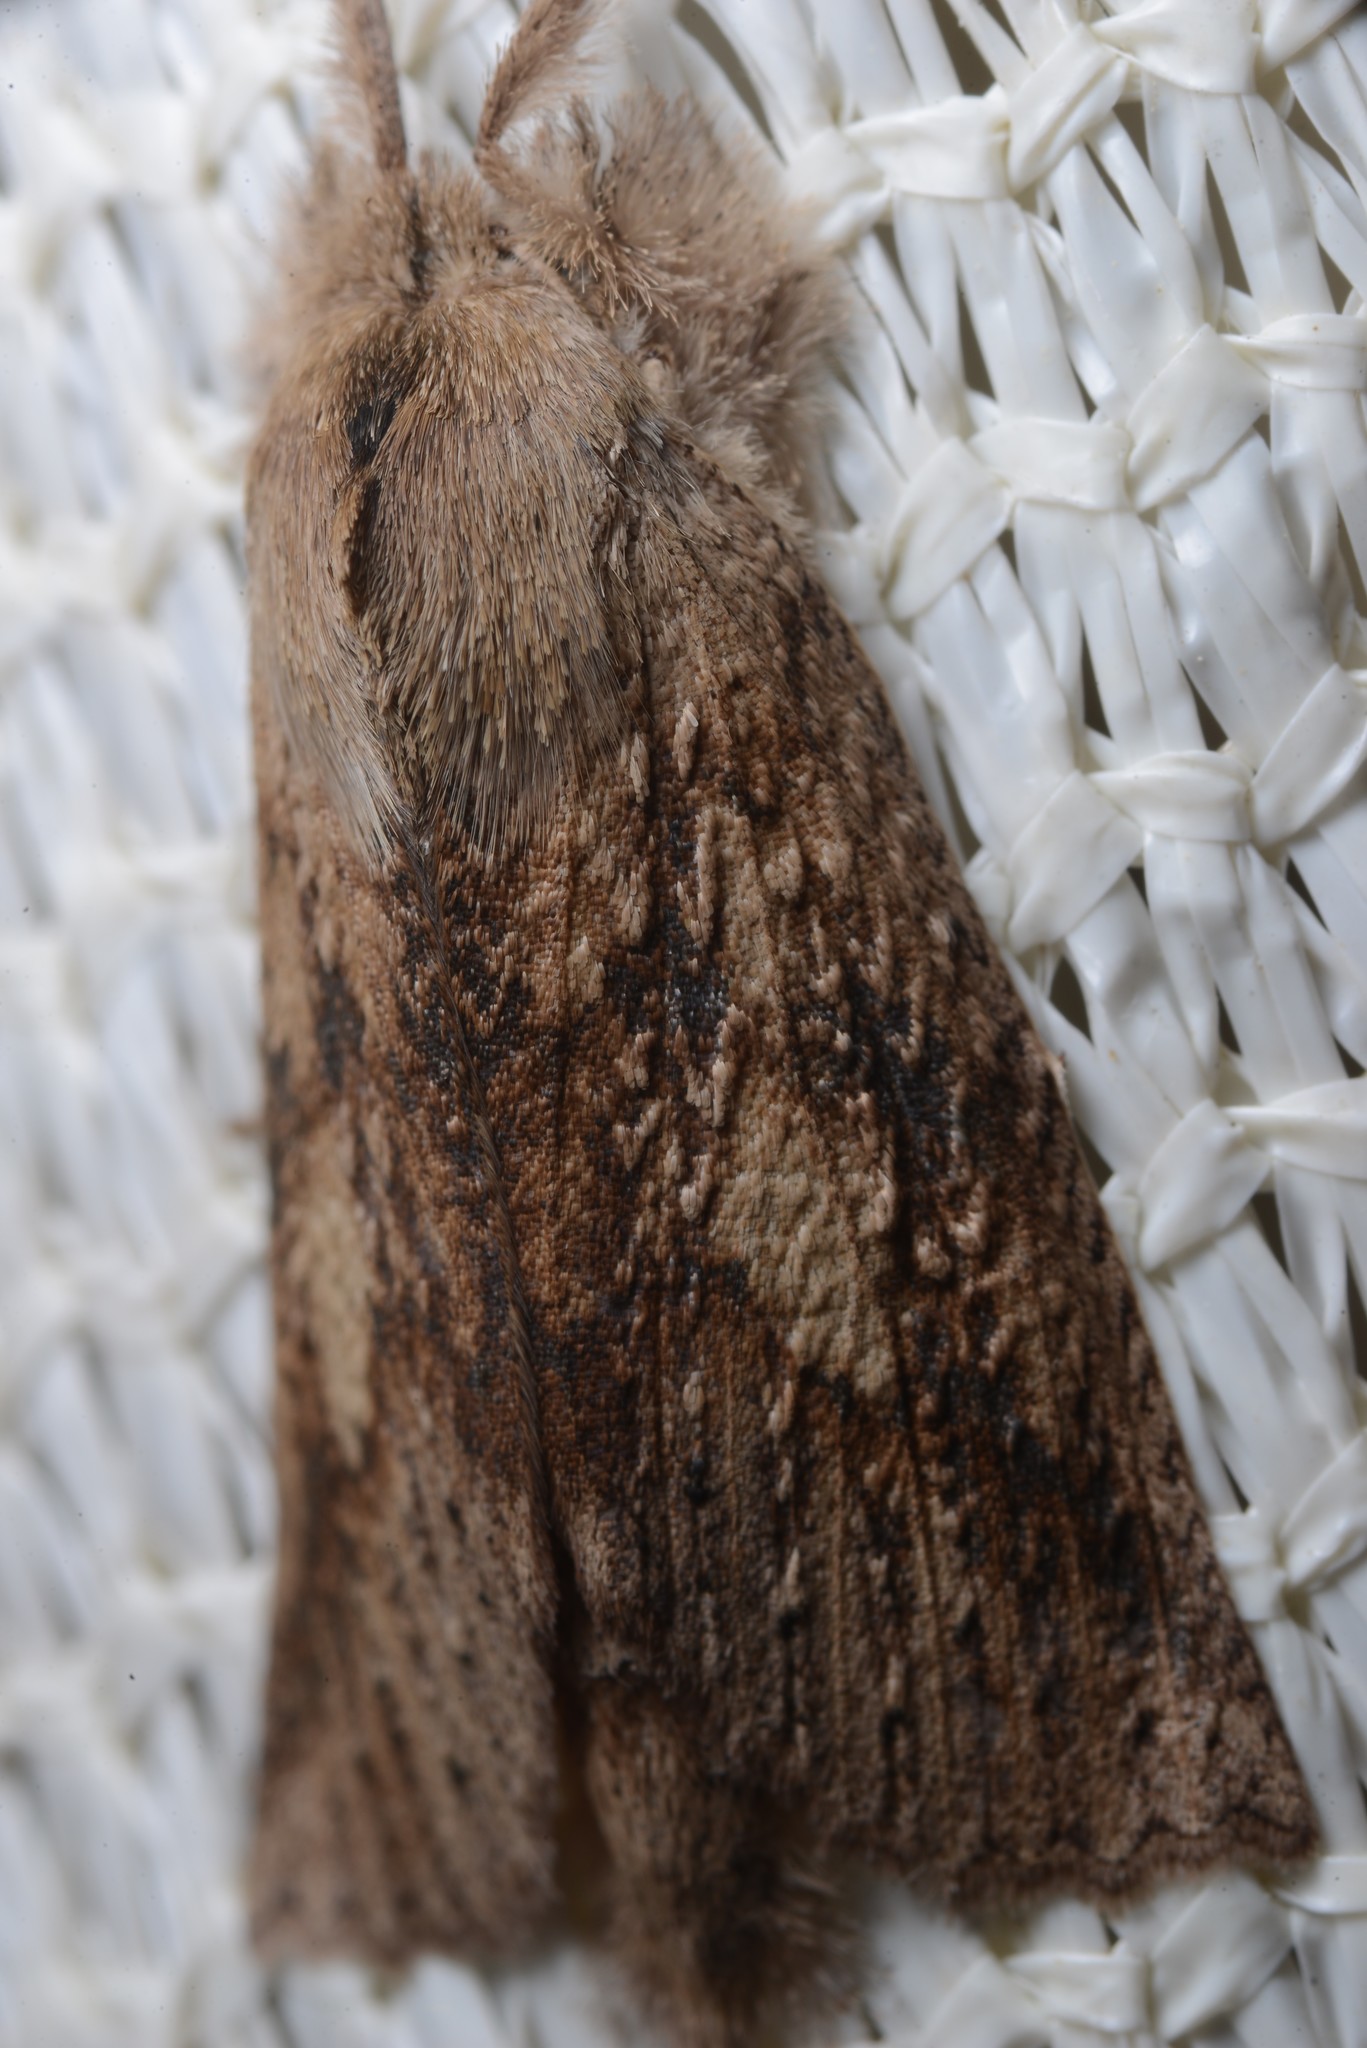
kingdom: Animalia
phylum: Arthropoda
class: Insecta
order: Lepidoptera
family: Geometridae
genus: Declana
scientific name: Declana leptomera
